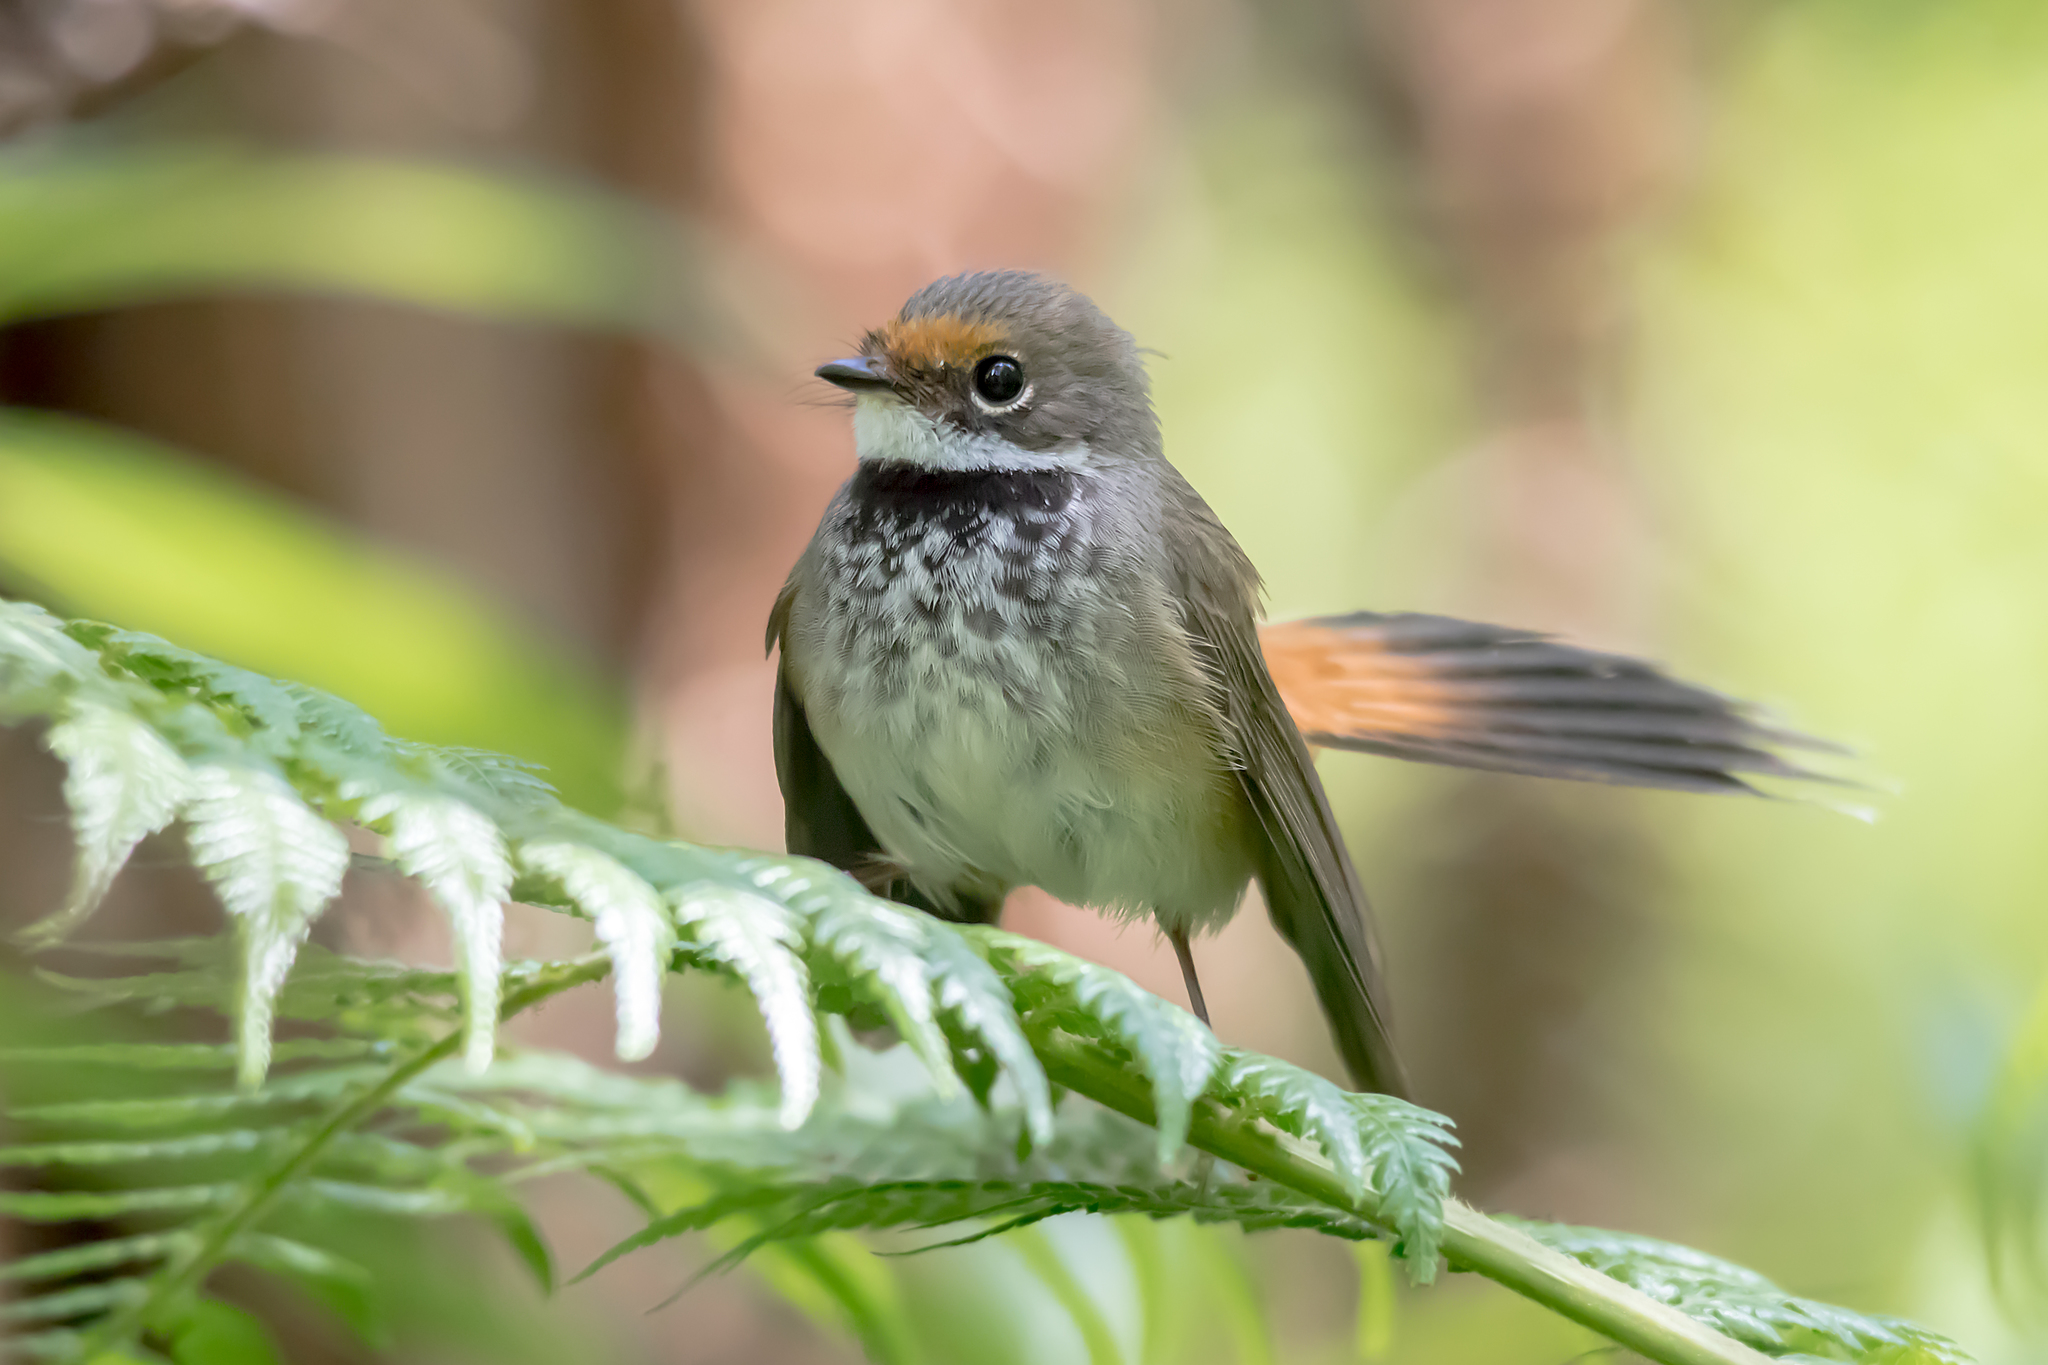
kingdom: Animalia
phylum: Chordata
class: Aves
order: Passeriformes
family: Rhipiduridae
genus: Rhipidura
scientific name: Rhipidura rufifrons
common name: Rufous fantail
